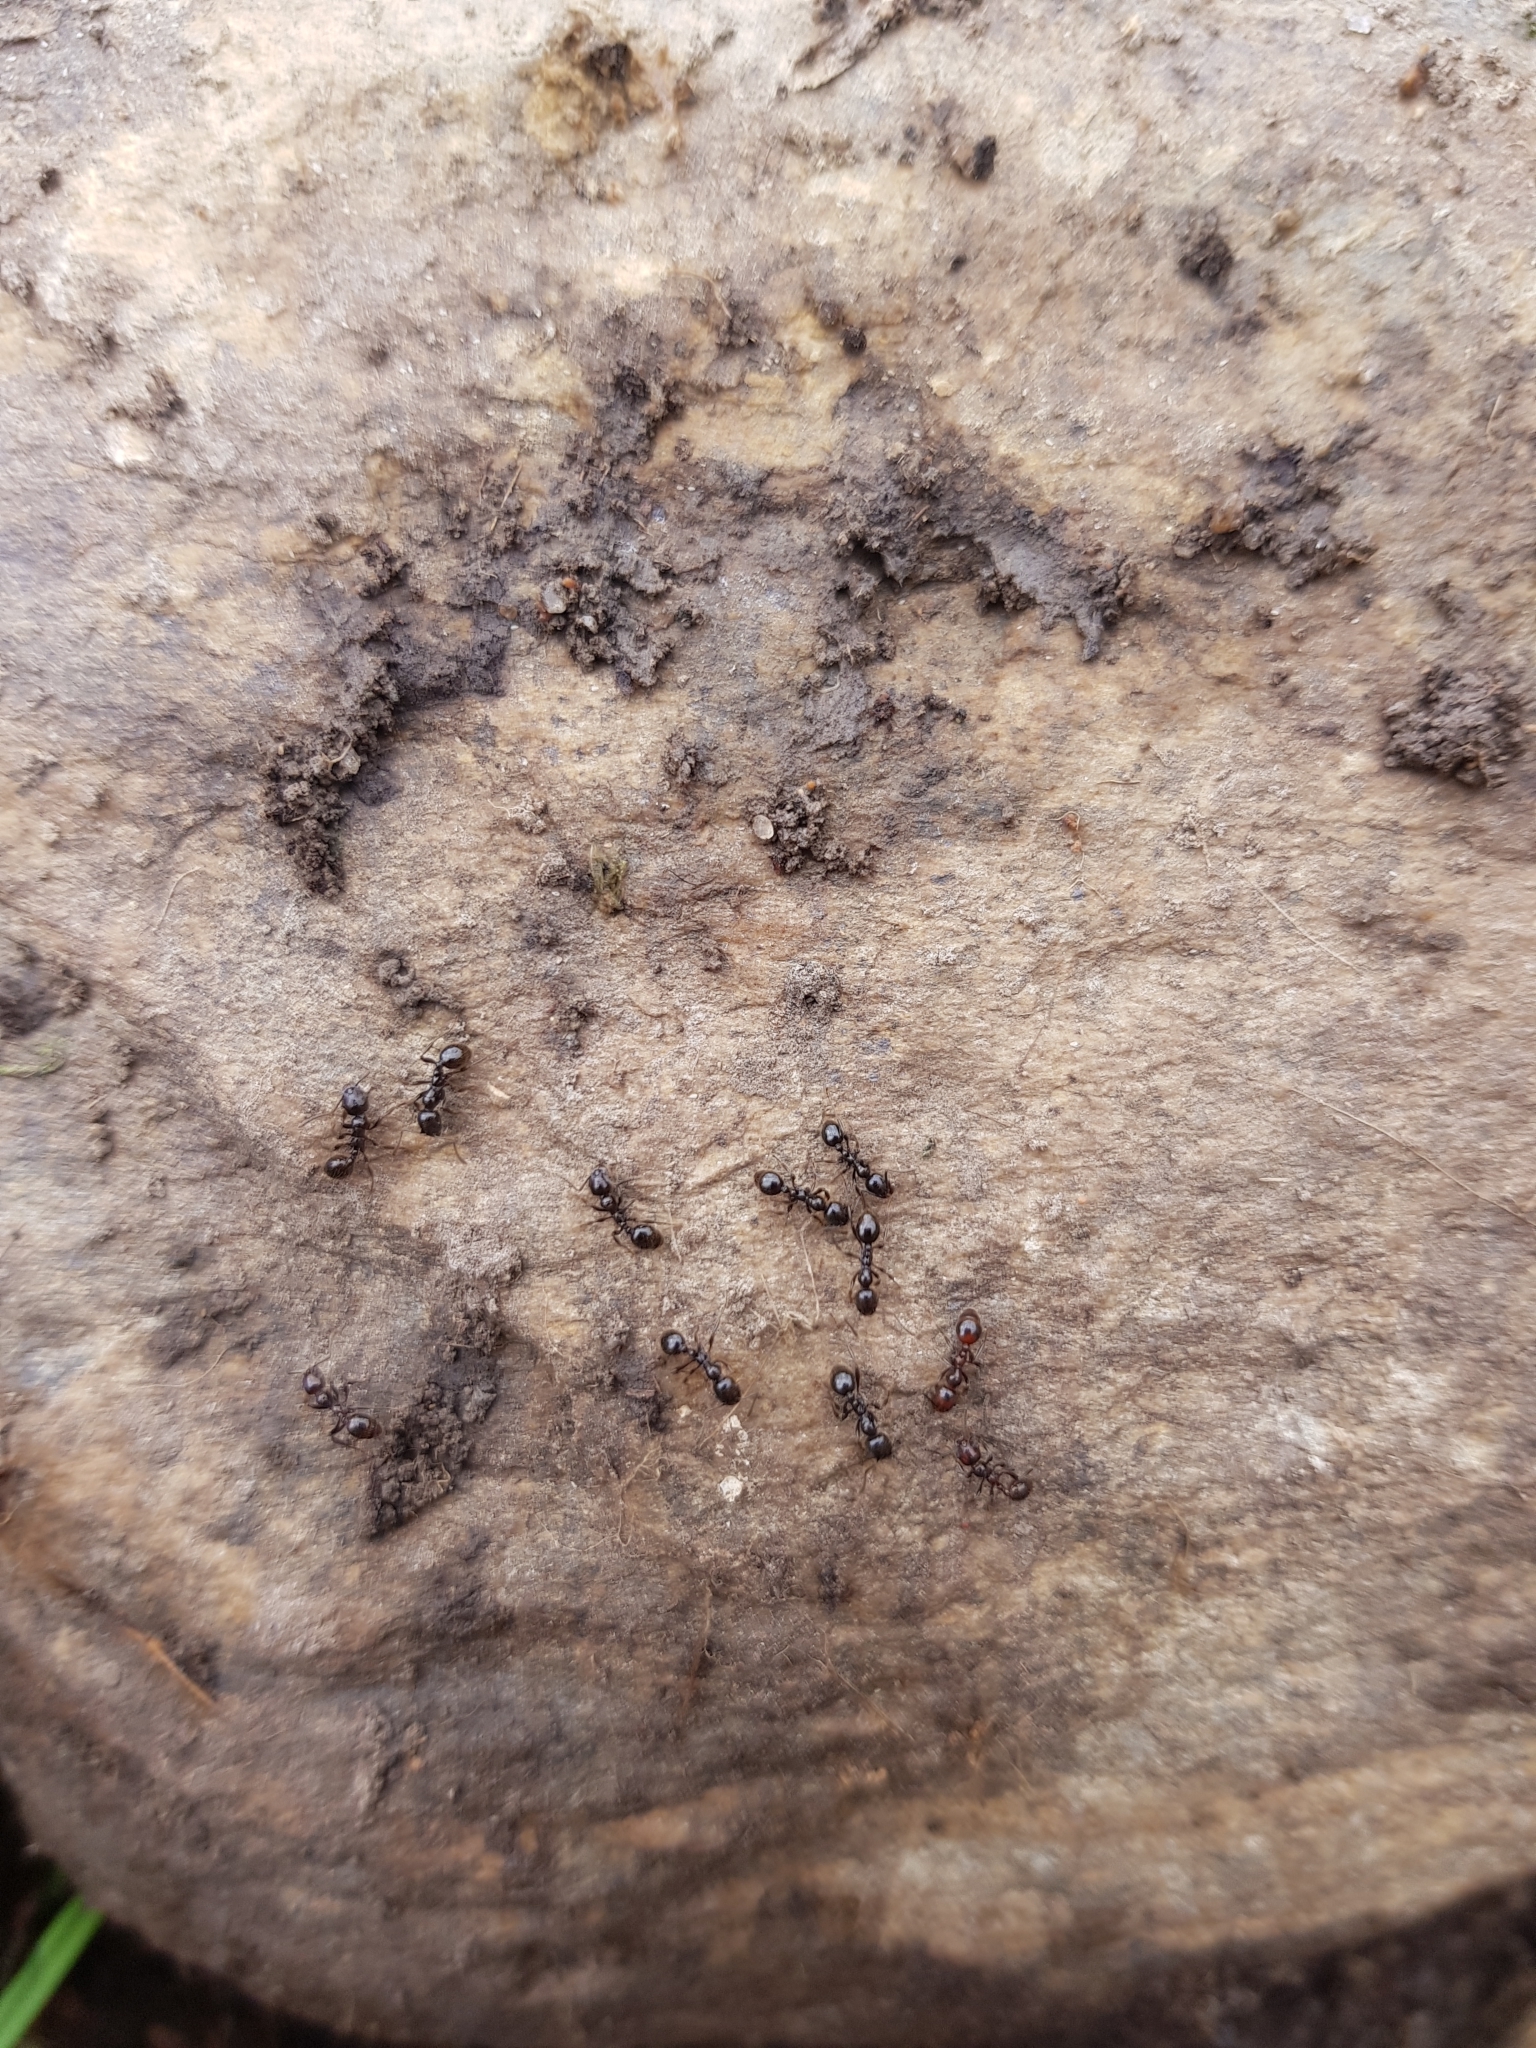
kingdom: Animalia
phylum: Arthropoda
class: Insecta
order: Hymenoptera
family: Formicidae
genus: Monomorium
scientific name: Monomorium antarcticum
